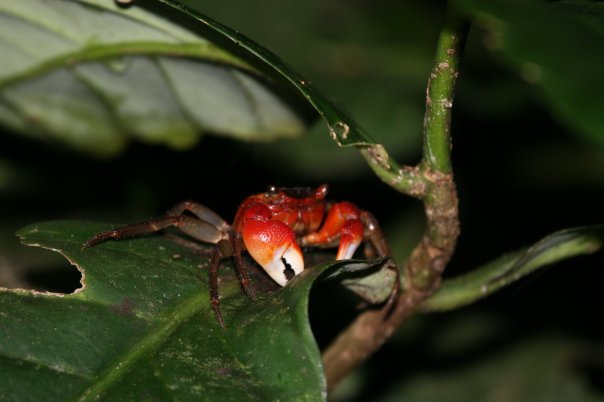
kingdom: Animalia
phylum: Arthropoda
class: Malacostraca
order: Decapoda
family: Sesarmidae
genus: Scandarma
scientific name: Scandarma gracilipes
